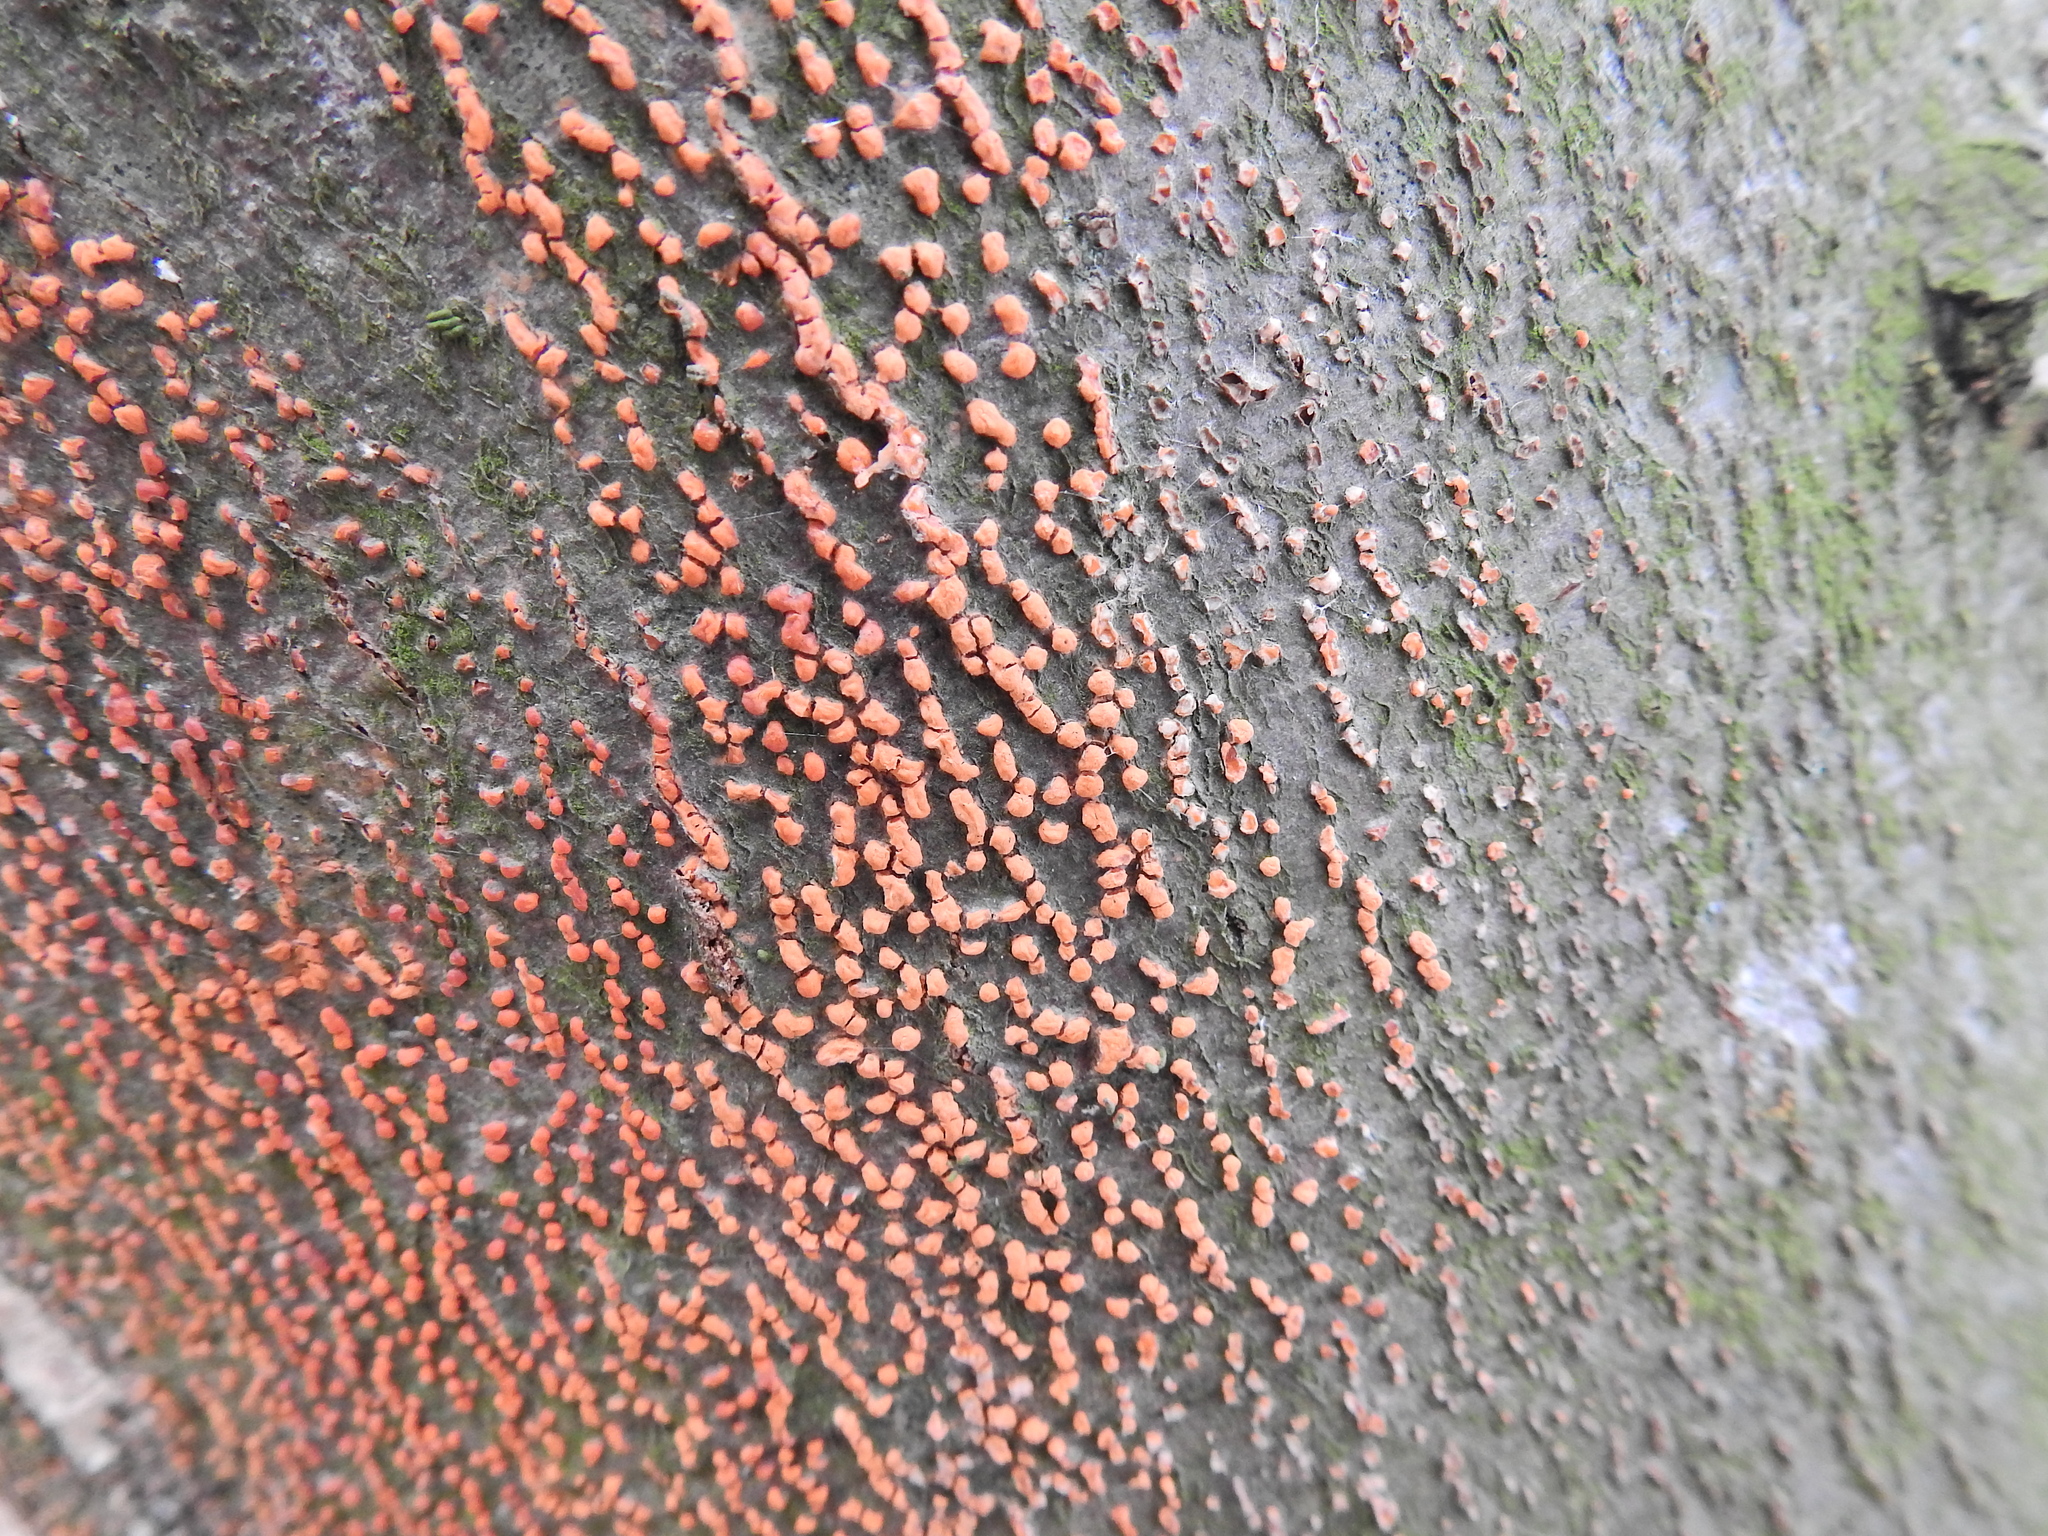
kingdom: Fungi
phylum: Ascomycota
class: Sordariomycetes
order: Hypocreales
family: Nectriaceae
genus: Nectria
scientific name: Nectria cinnabarina
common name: Coral spot
